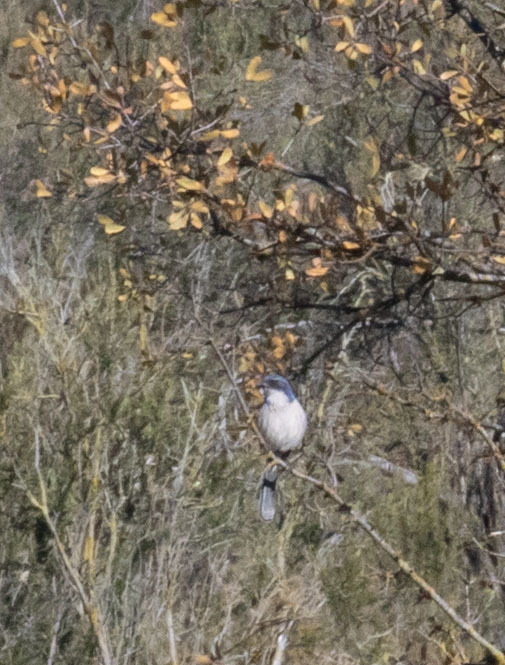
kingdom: Animalia
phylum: Chordata
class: Aves
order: Passeriformes
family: Corvidae
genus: Aphelocoma
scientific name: Aphelocoma californica
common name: California scrub-jay
